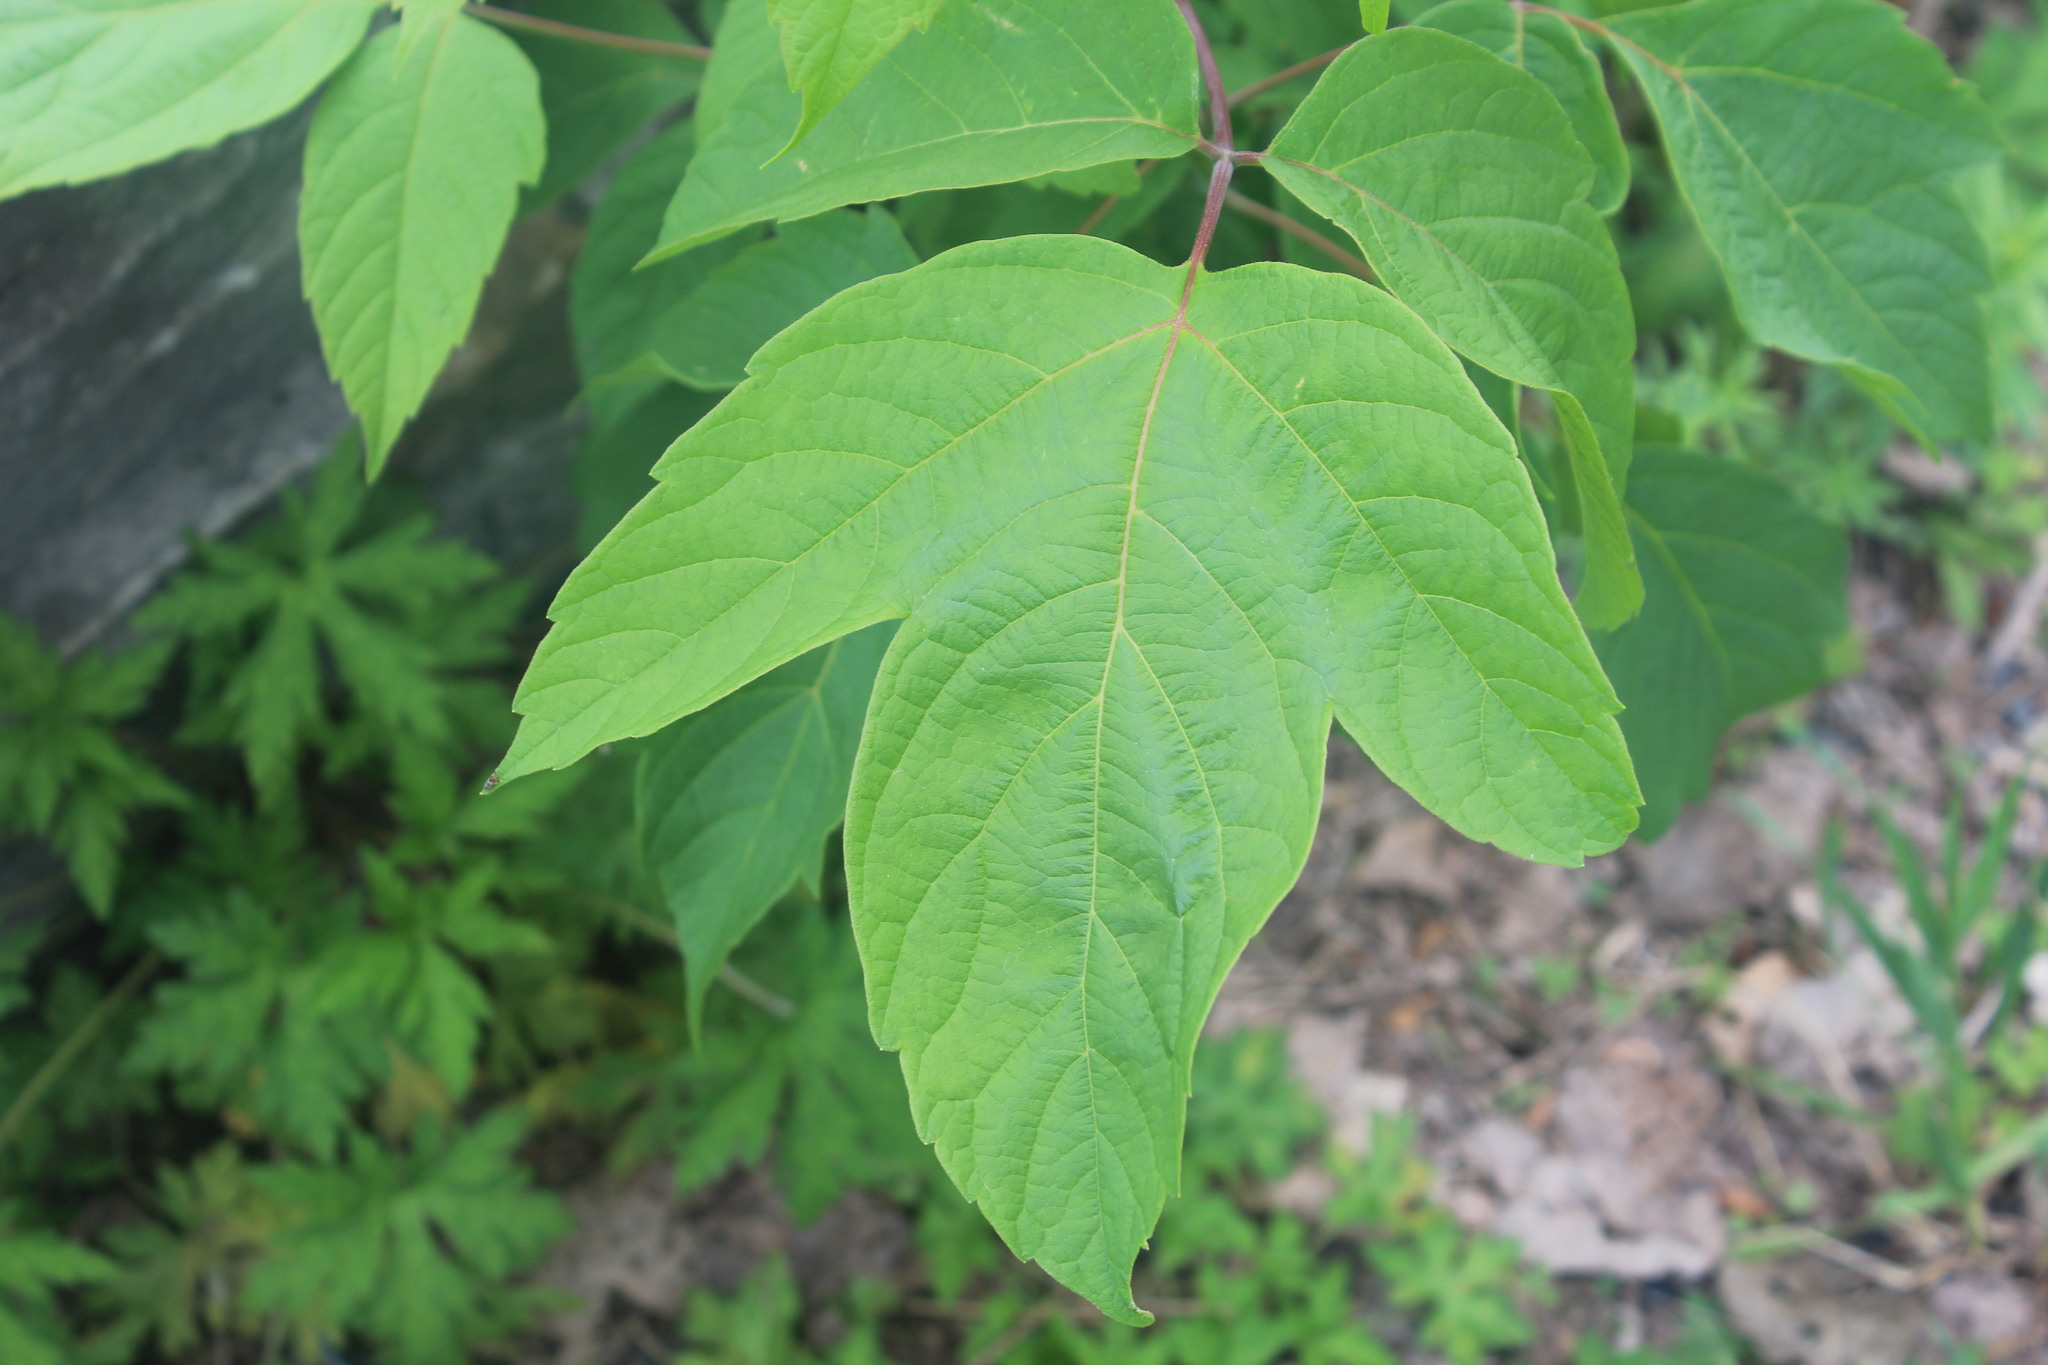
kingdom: Plantae
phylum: Tracheophyta
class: Magnoliopsida
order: Sapindales
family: Sapindaceae
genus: Acer
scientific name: Acer negundo
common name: Ashleaf maple
